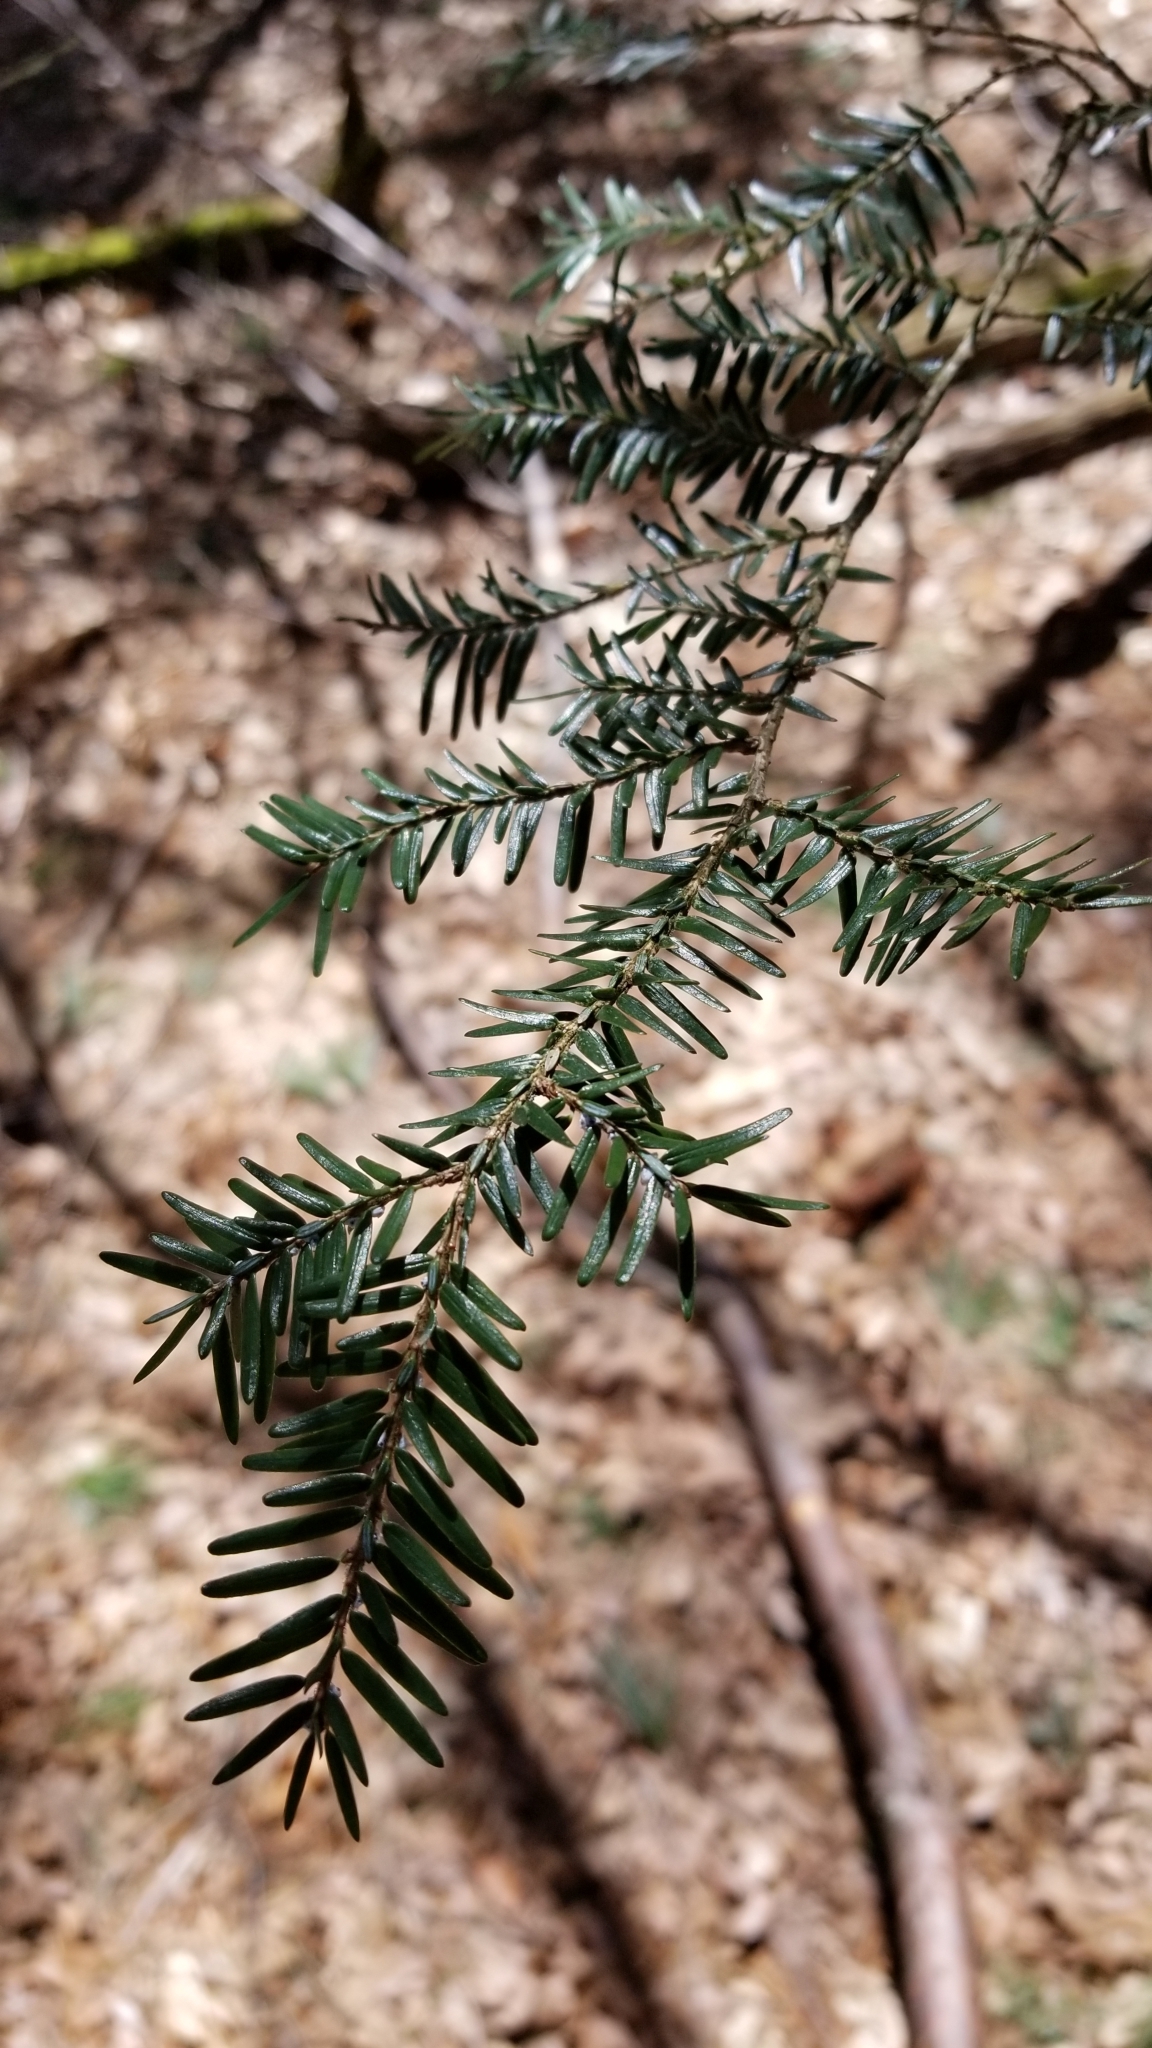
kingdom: Plantae
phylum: Tracheophyta
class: Pinopsida
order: Pinales
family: Pinaceae
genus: Tsuga
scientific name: Tsuga canadensis
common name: Eastern hemlock
